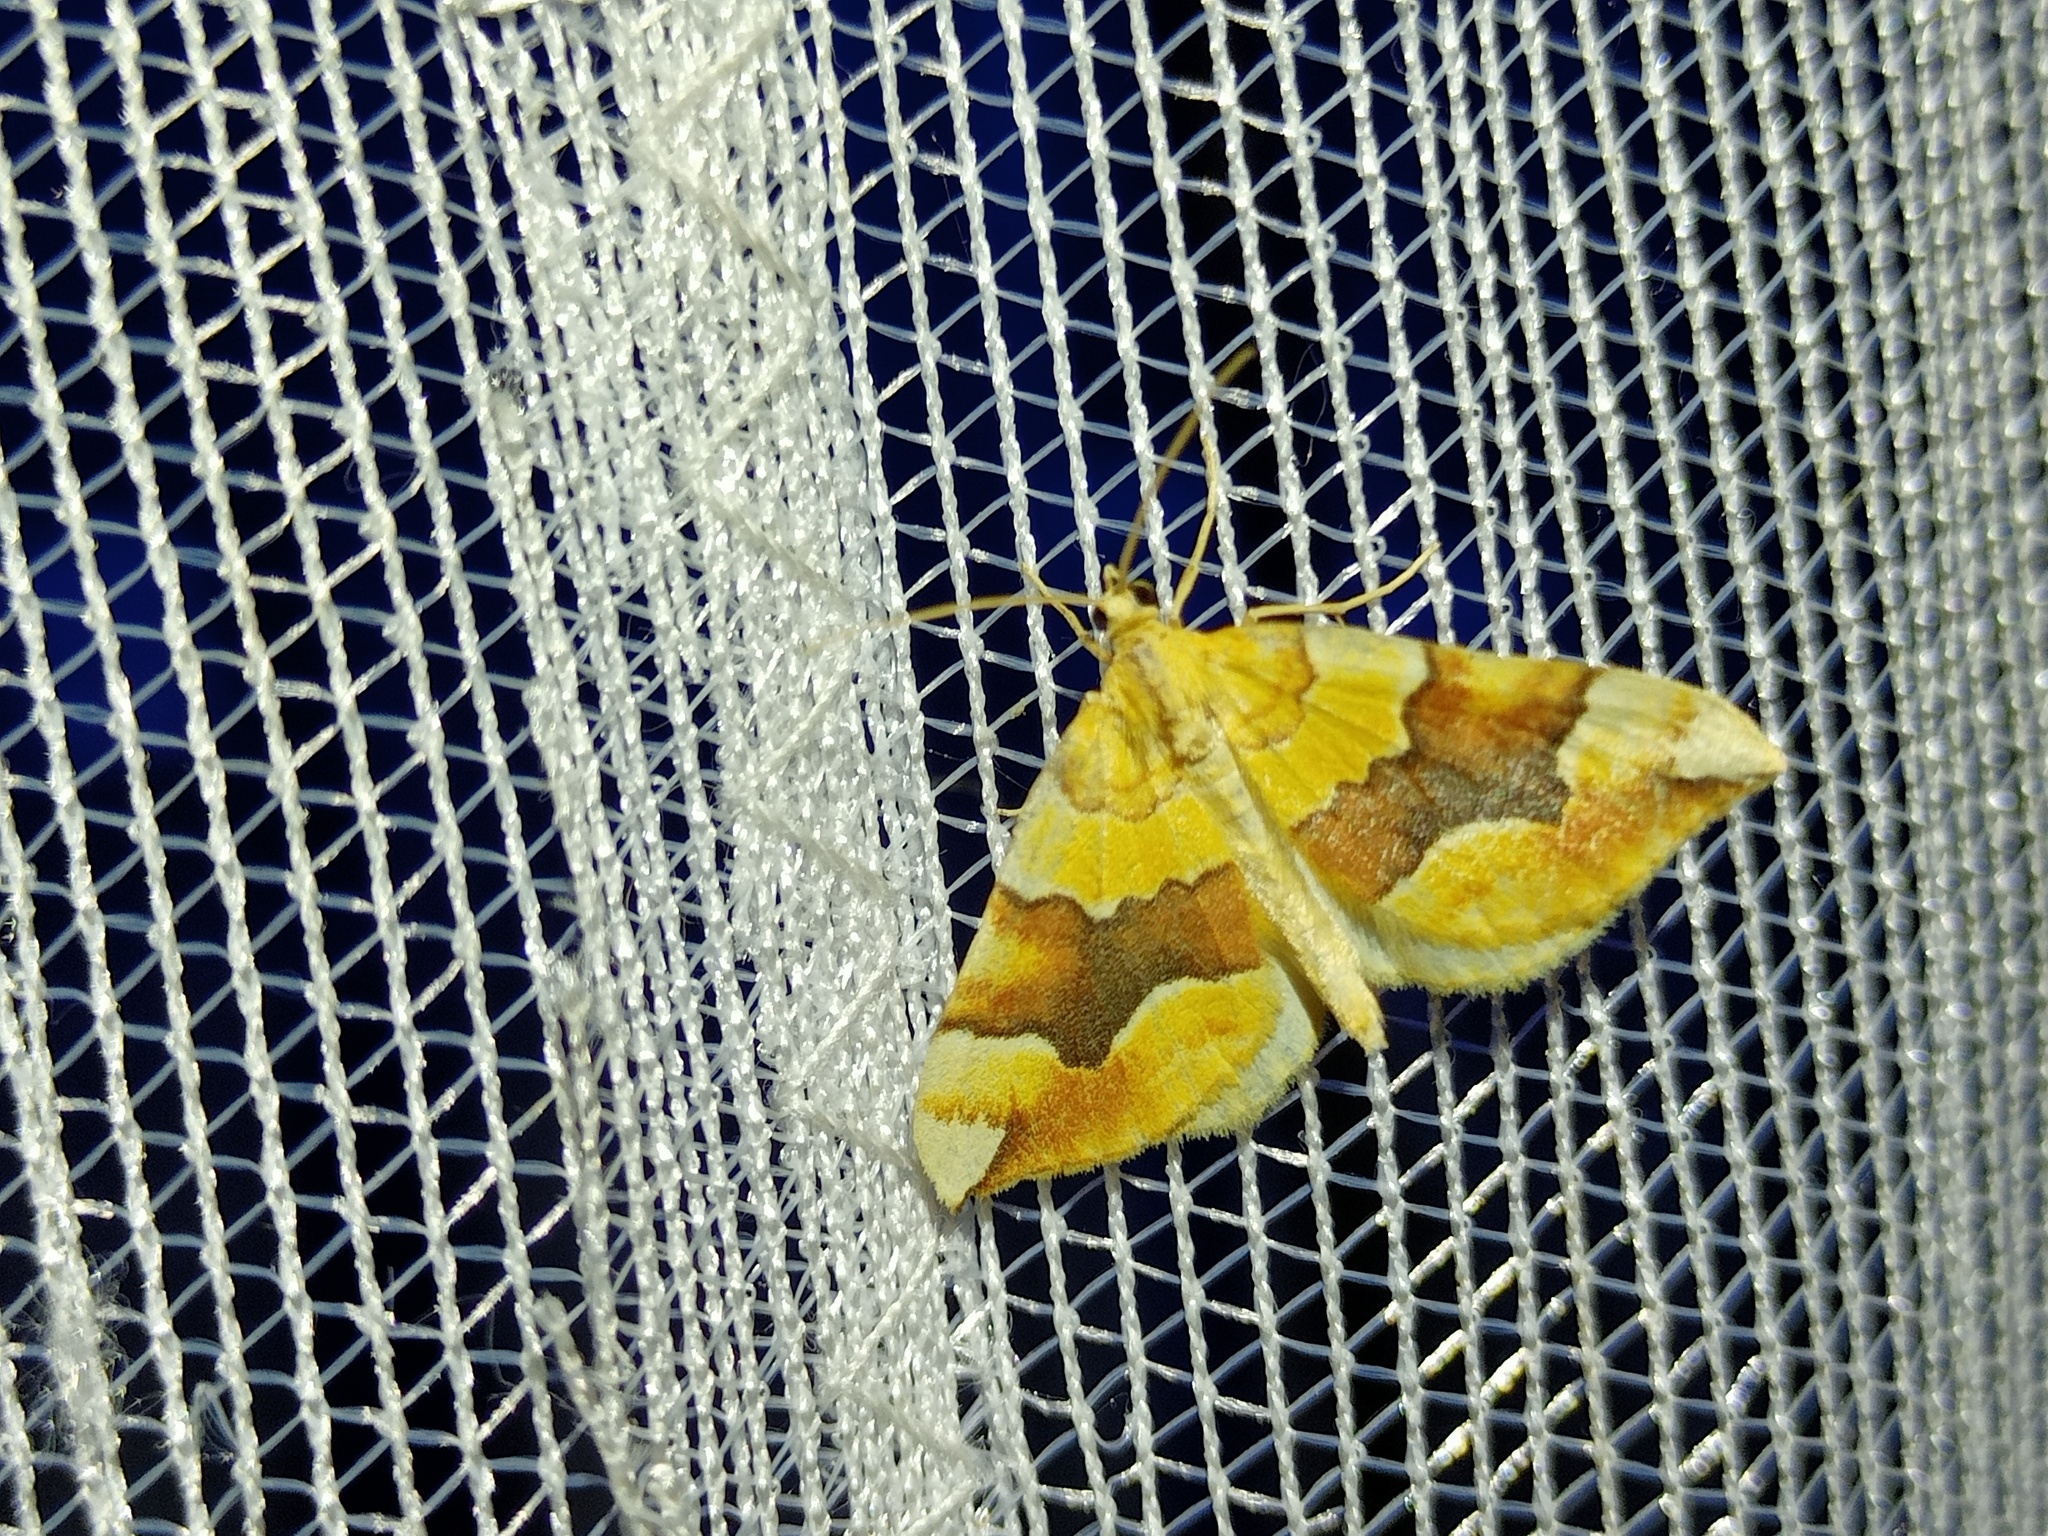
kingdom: Animalia
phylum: Arthropoda
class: Insecta
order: Lepidoptera
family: Geometridae
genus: Cidaria
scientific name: Cidaria fulvata
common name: Barred yellow
